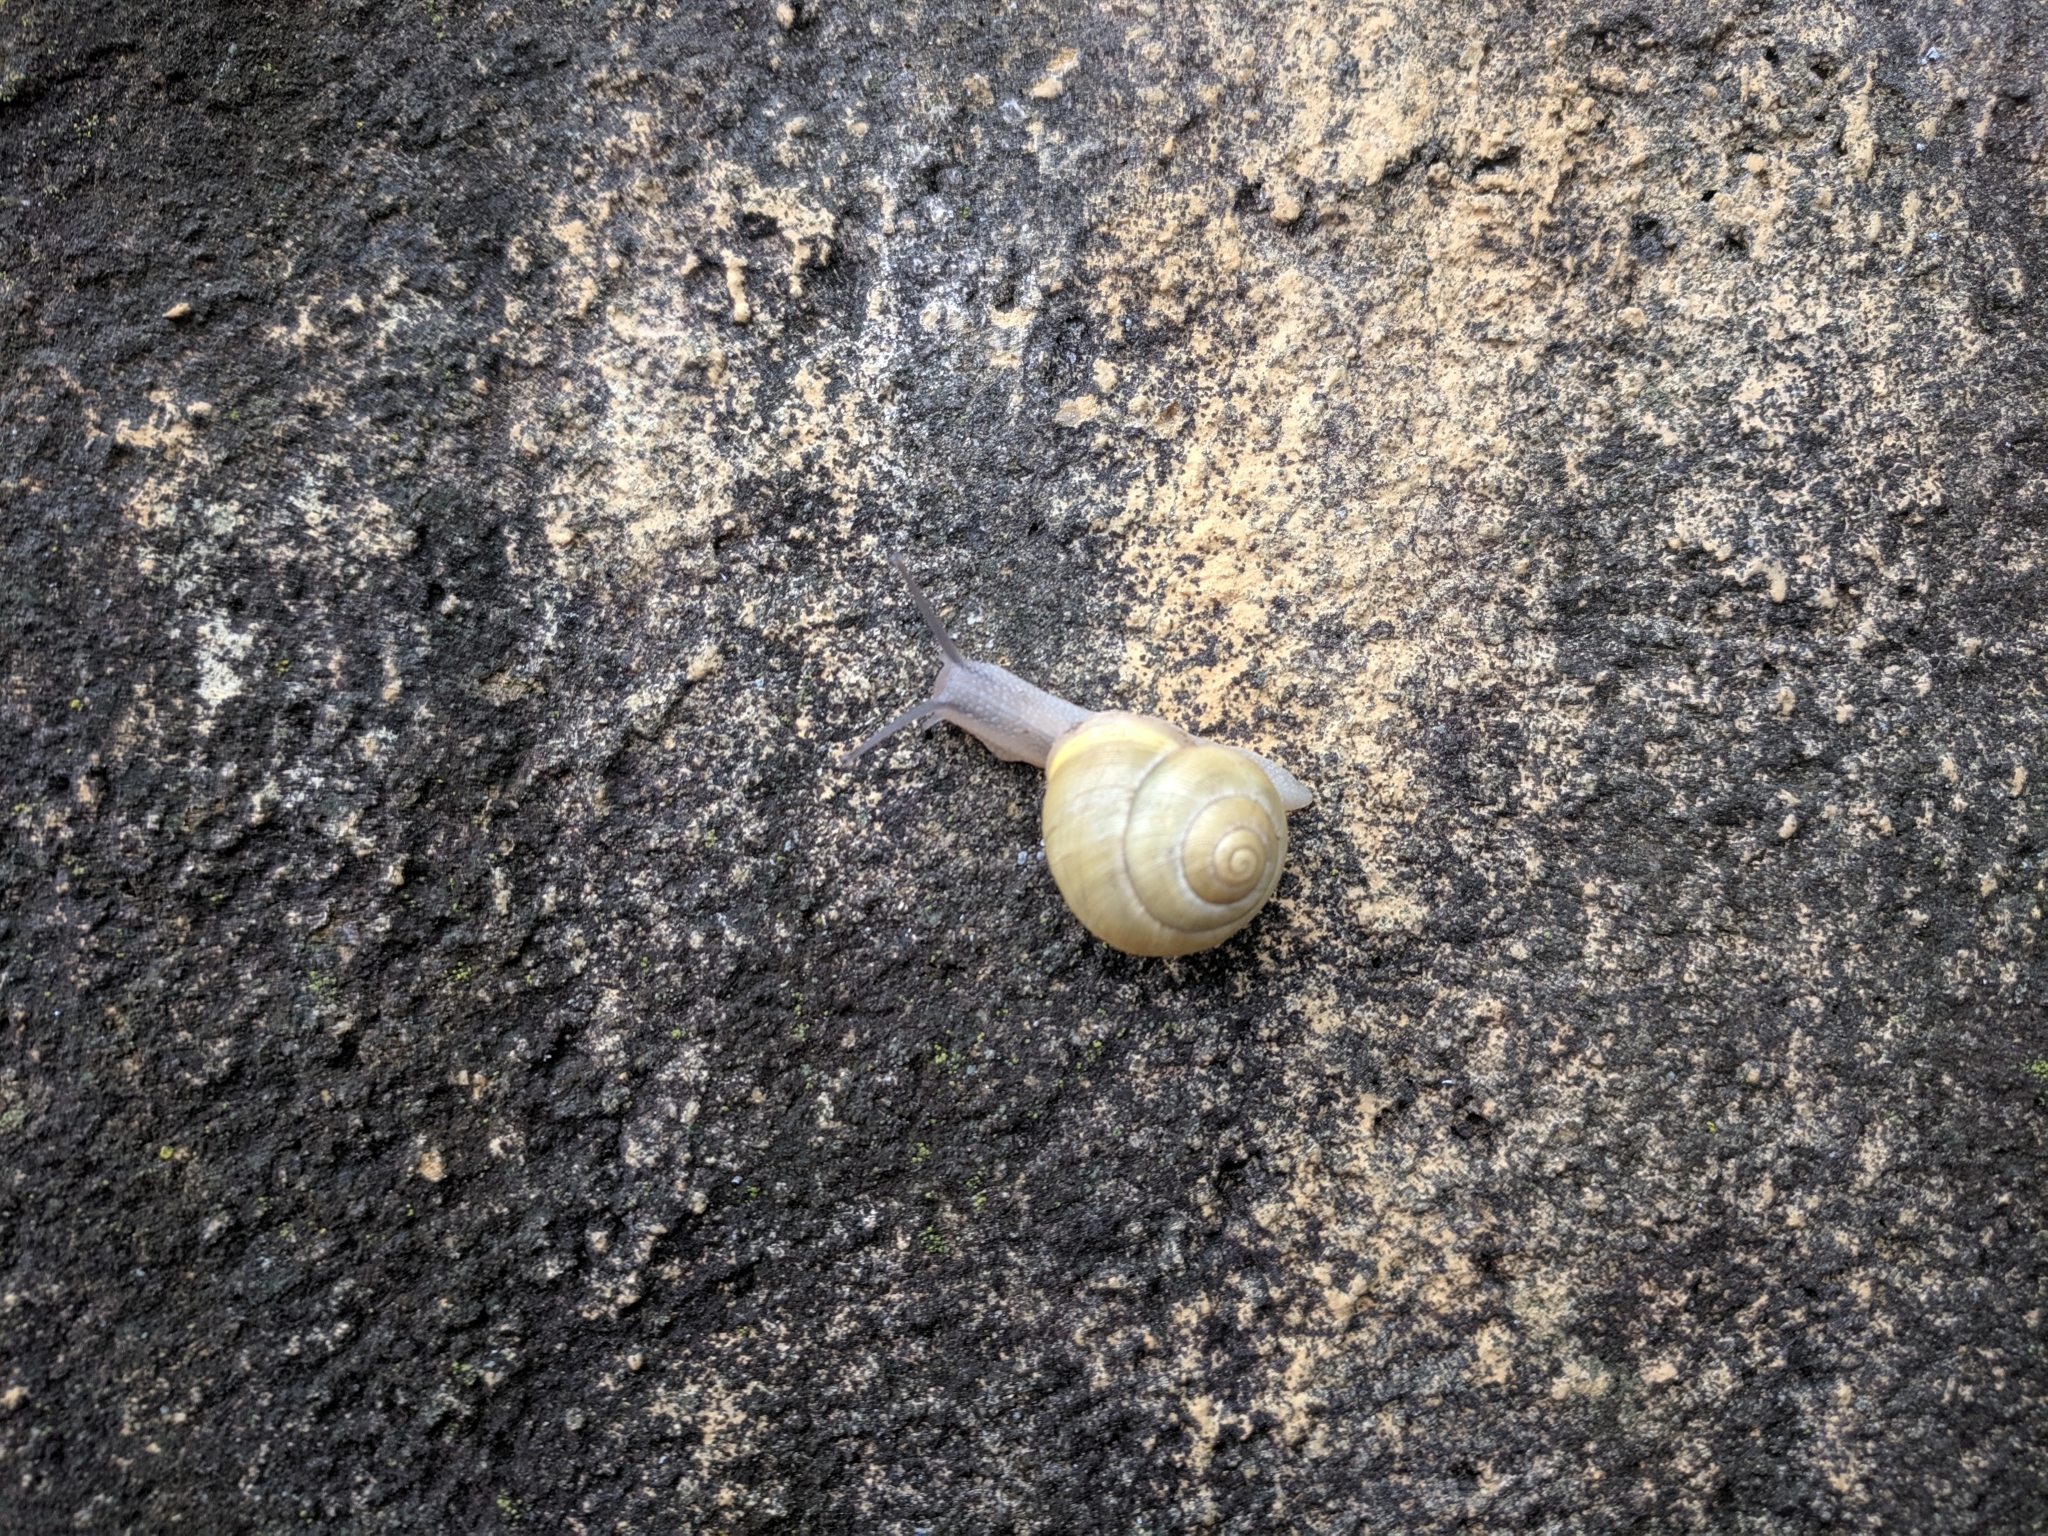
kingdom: Animalia
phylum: Mollusca
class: Gastropoda
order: Stylommatophora
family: Helicidae
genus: Cepaea
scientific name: Cepaea hortensis
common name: White-lip gardensnail
